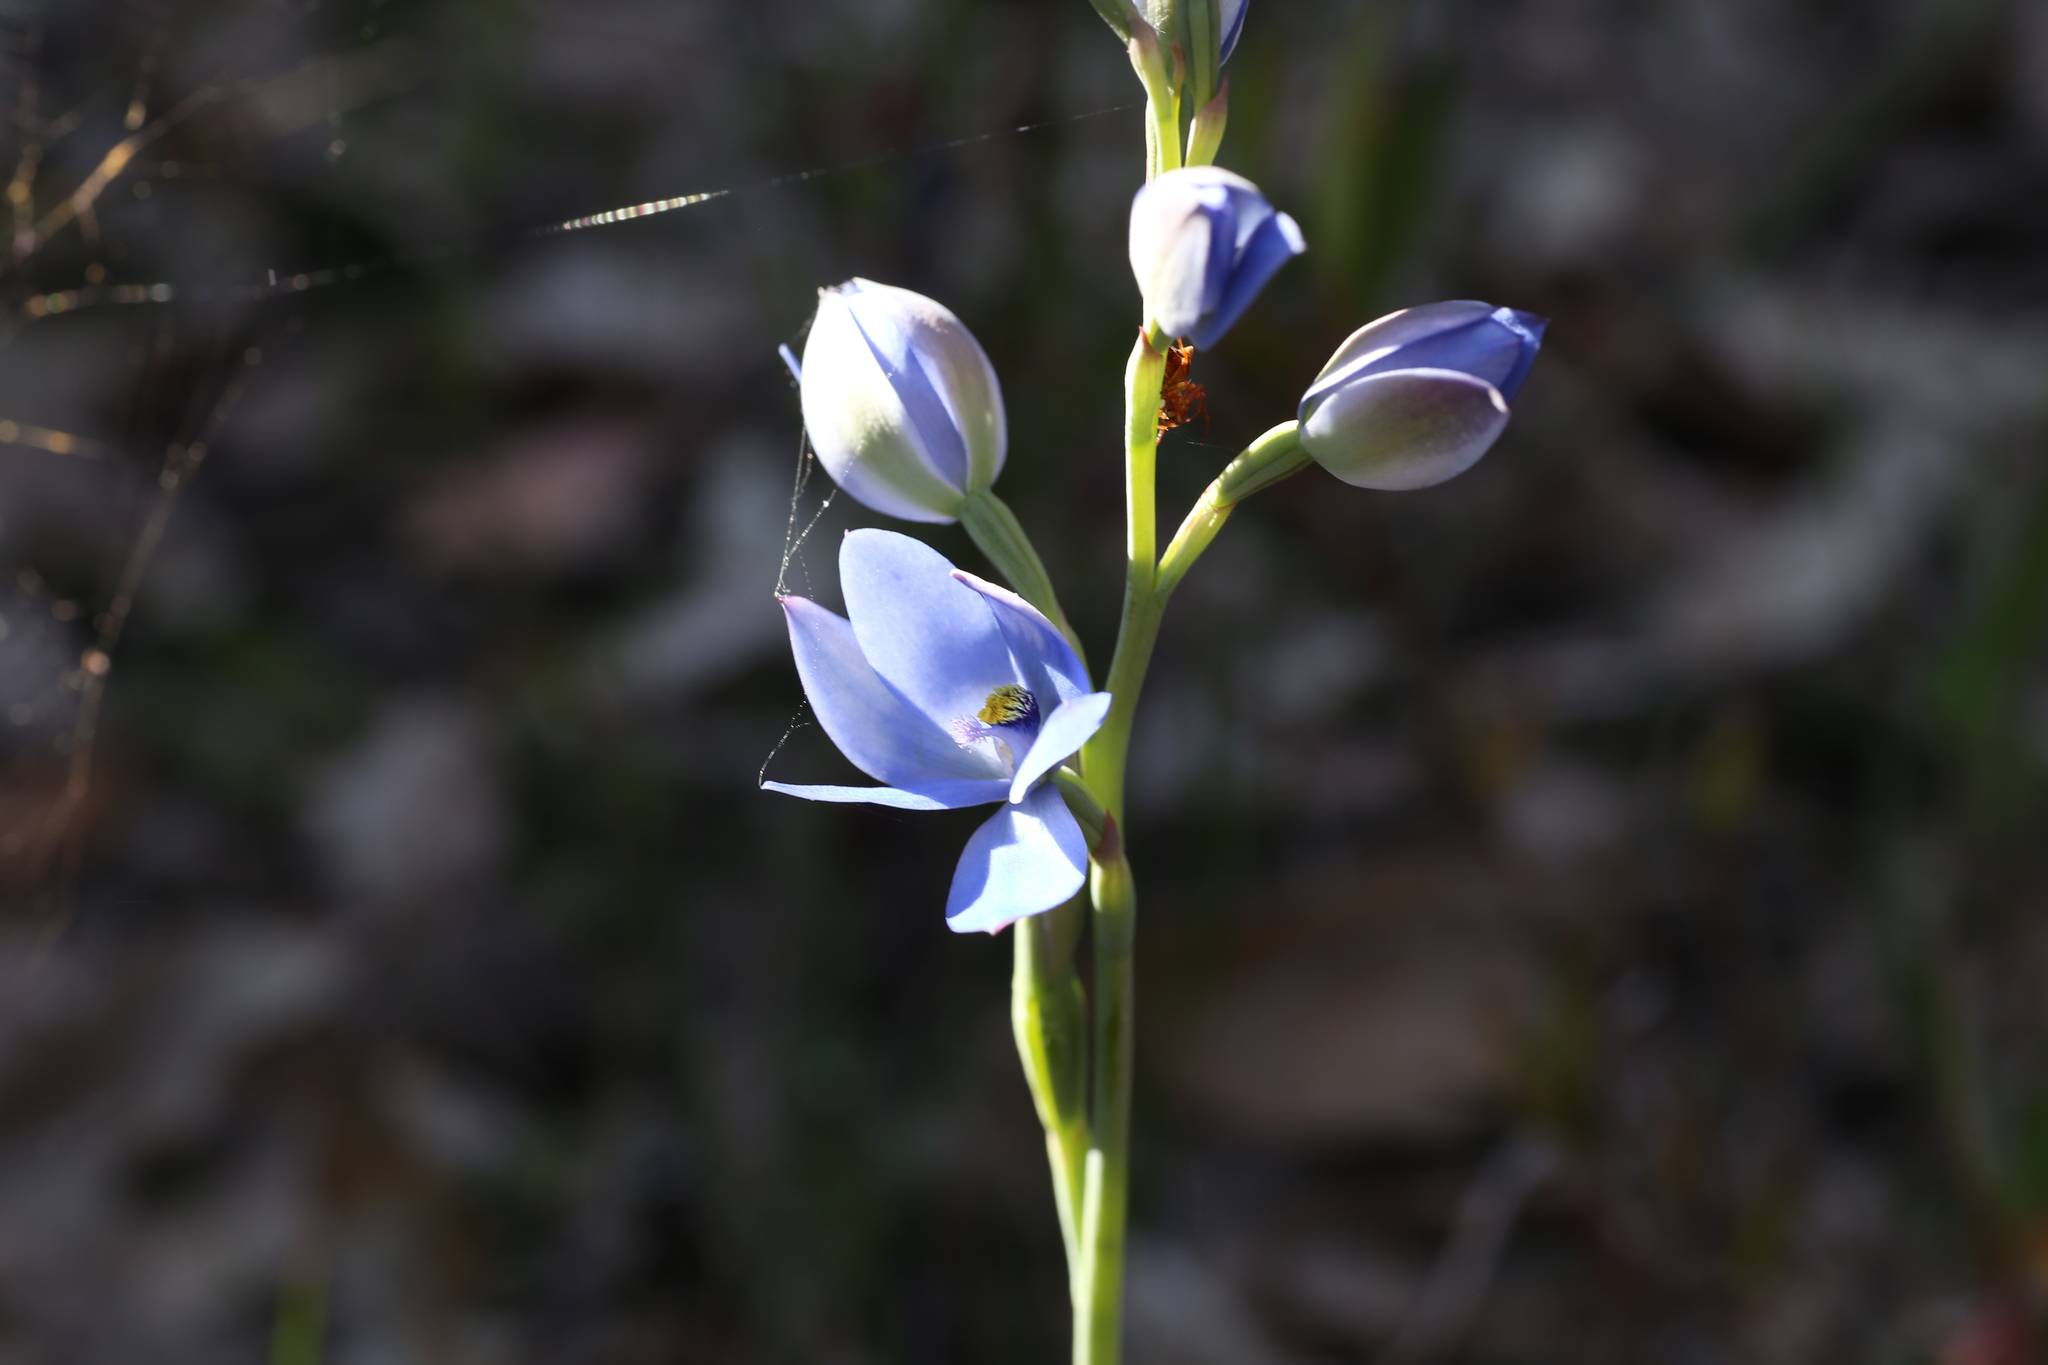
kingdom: Plantae
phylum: Tracheophyta
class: Liliopsida
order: Asparagales
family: Orchidaceae
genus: Thelymitra
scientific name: Thelymitra crinita
